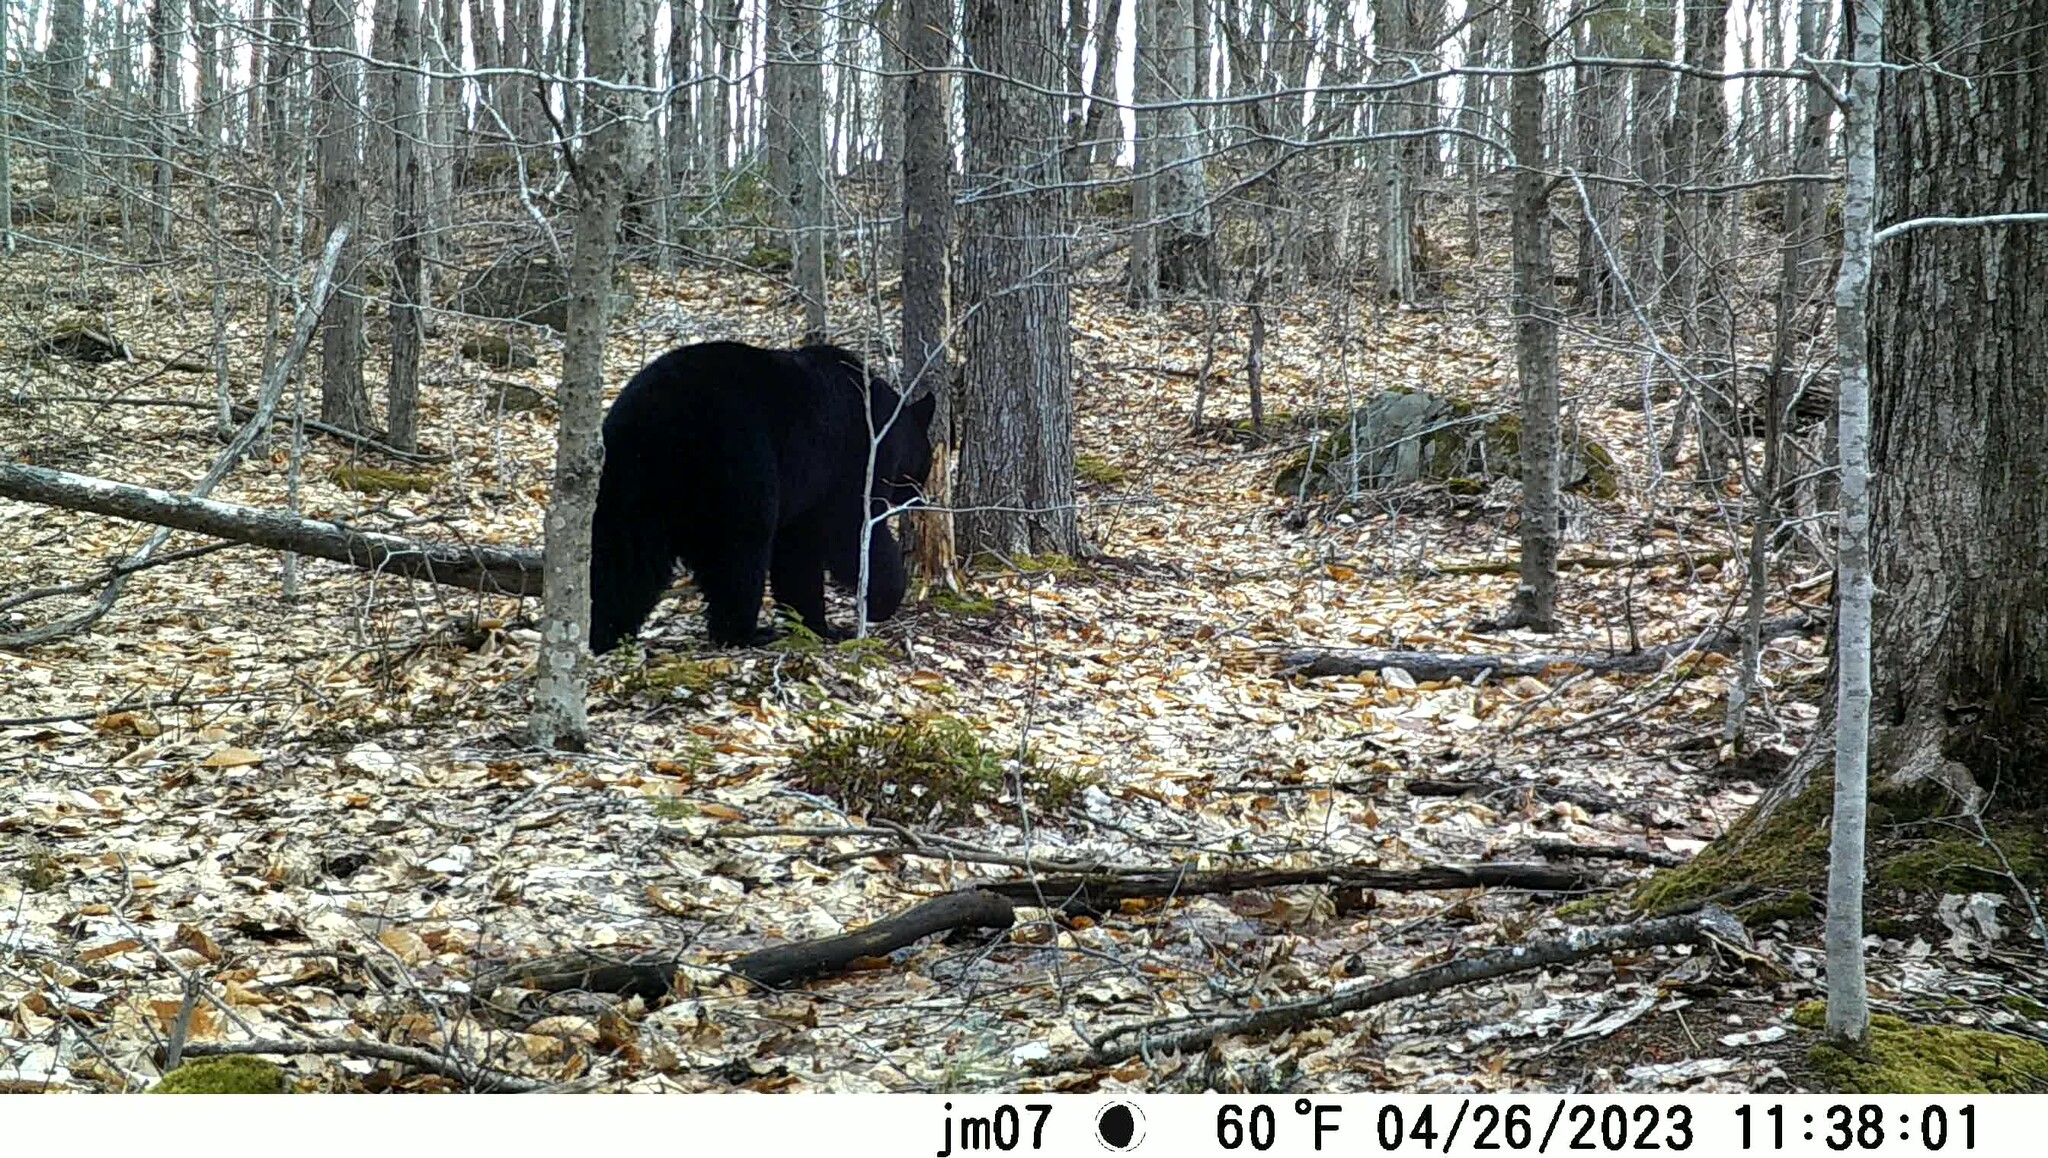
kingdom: Animalia
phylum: Chordata
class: Mammalia
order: Carnivora
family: Ursidae
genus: Ursus
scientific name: Ursus americanus
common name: American black bear
